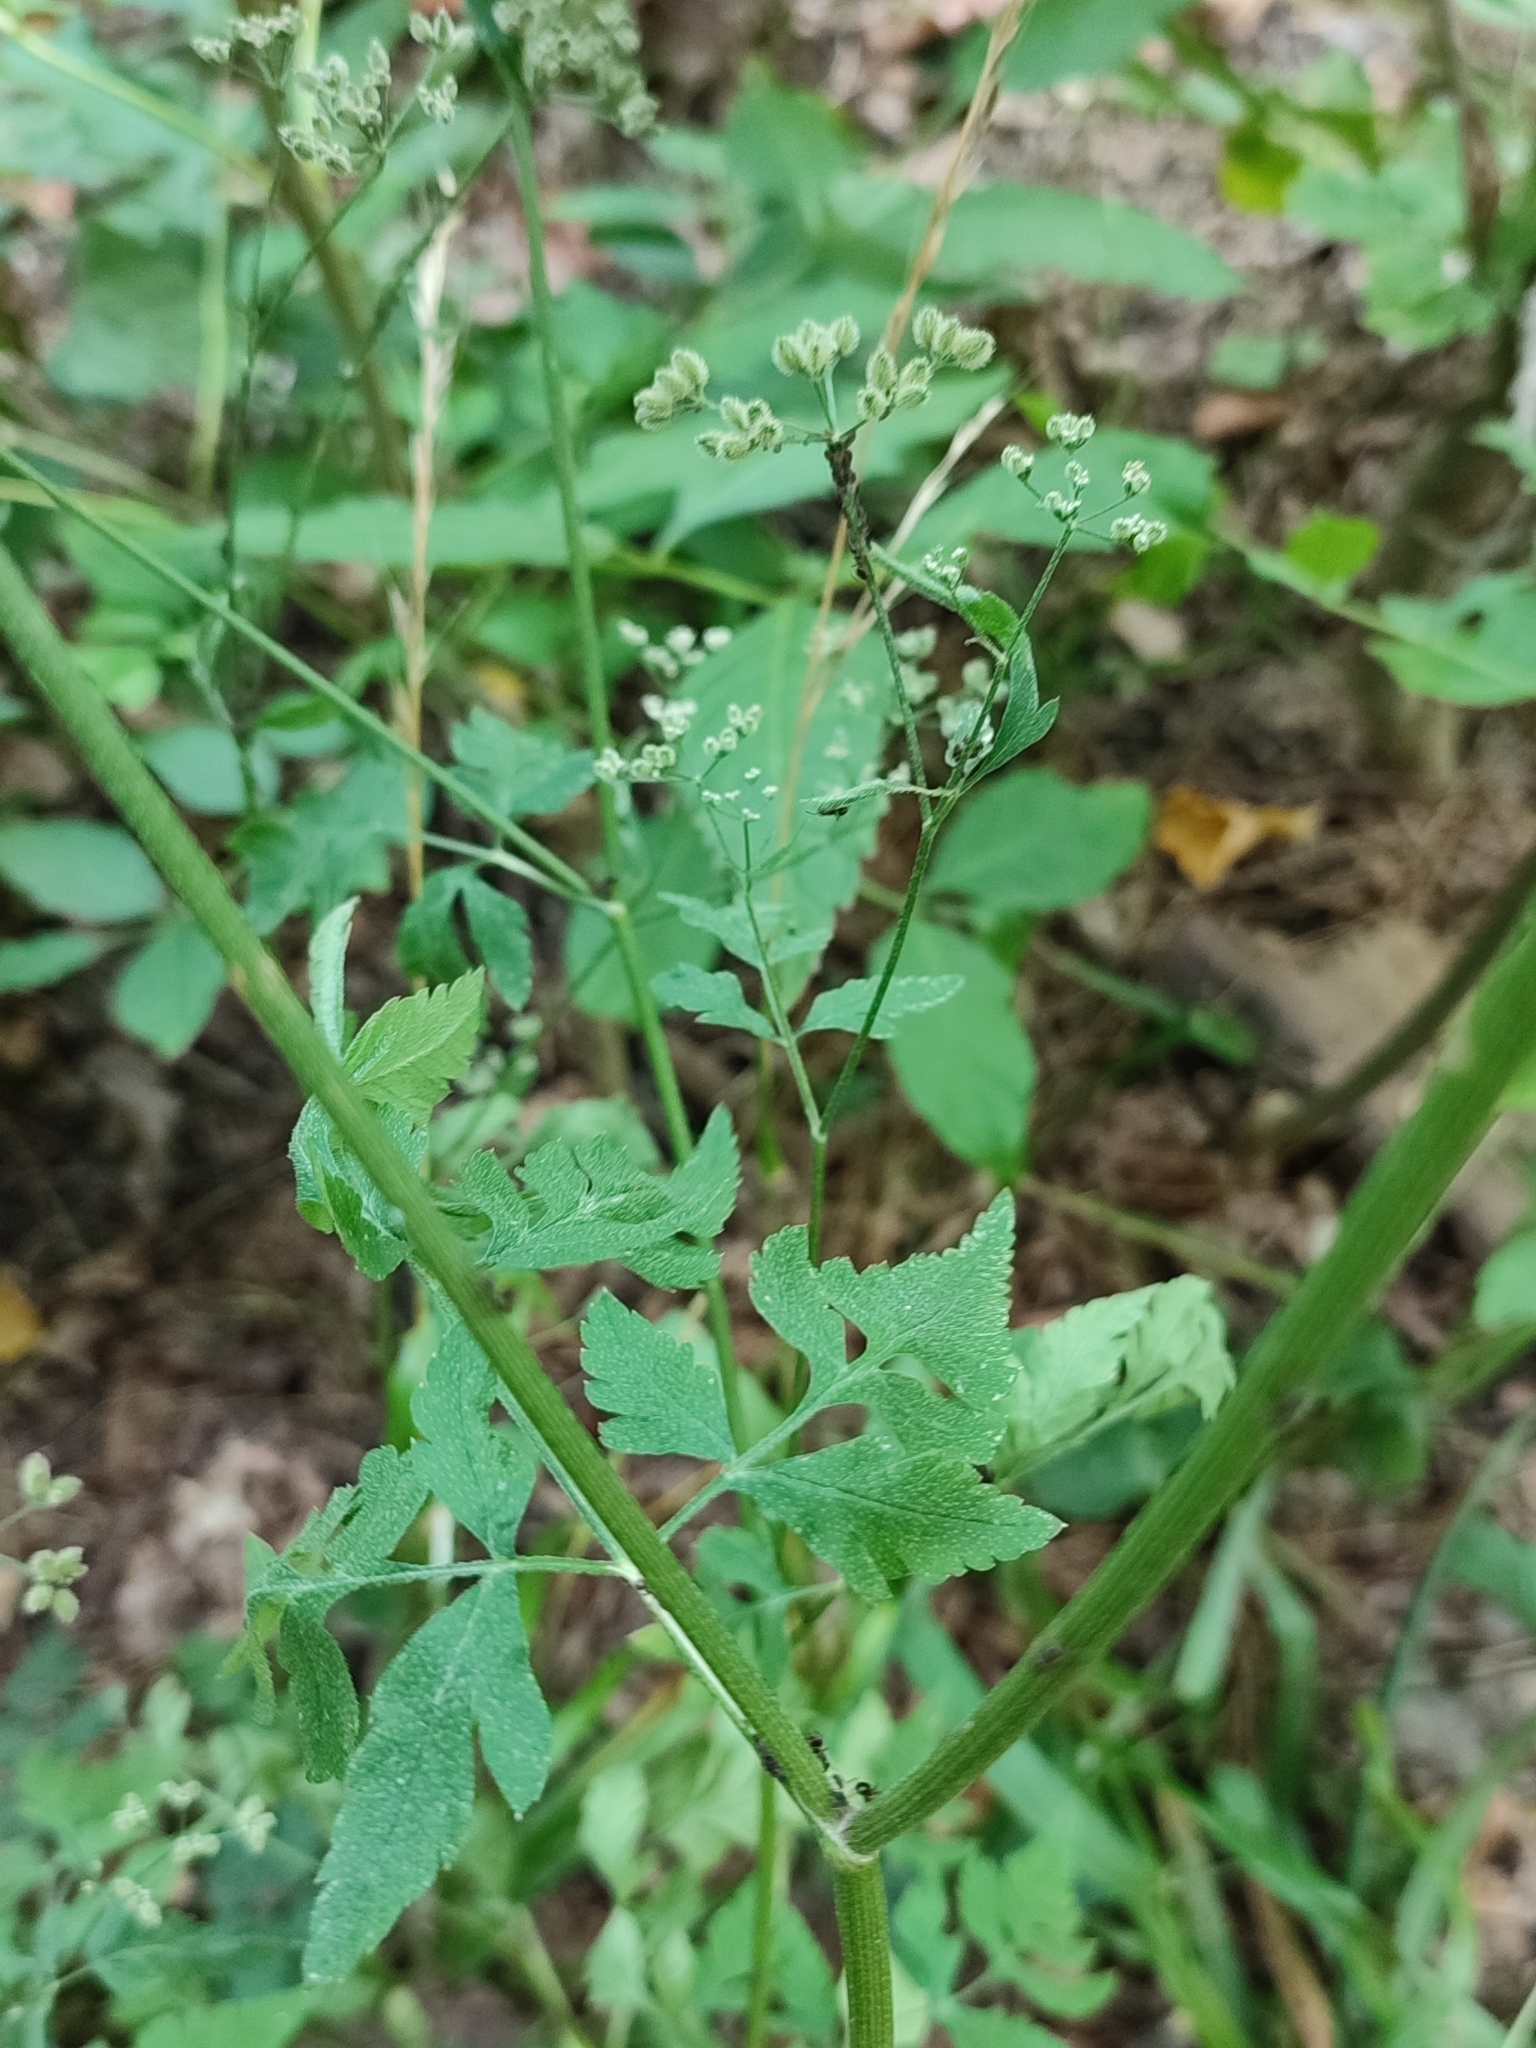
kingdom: Plantae
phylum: Tracheophyta
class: Magnoliopsida
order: Apiales
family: Apiaceae
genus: Torilis
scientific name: Torilis japonica
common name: Upright hedge-parsley
